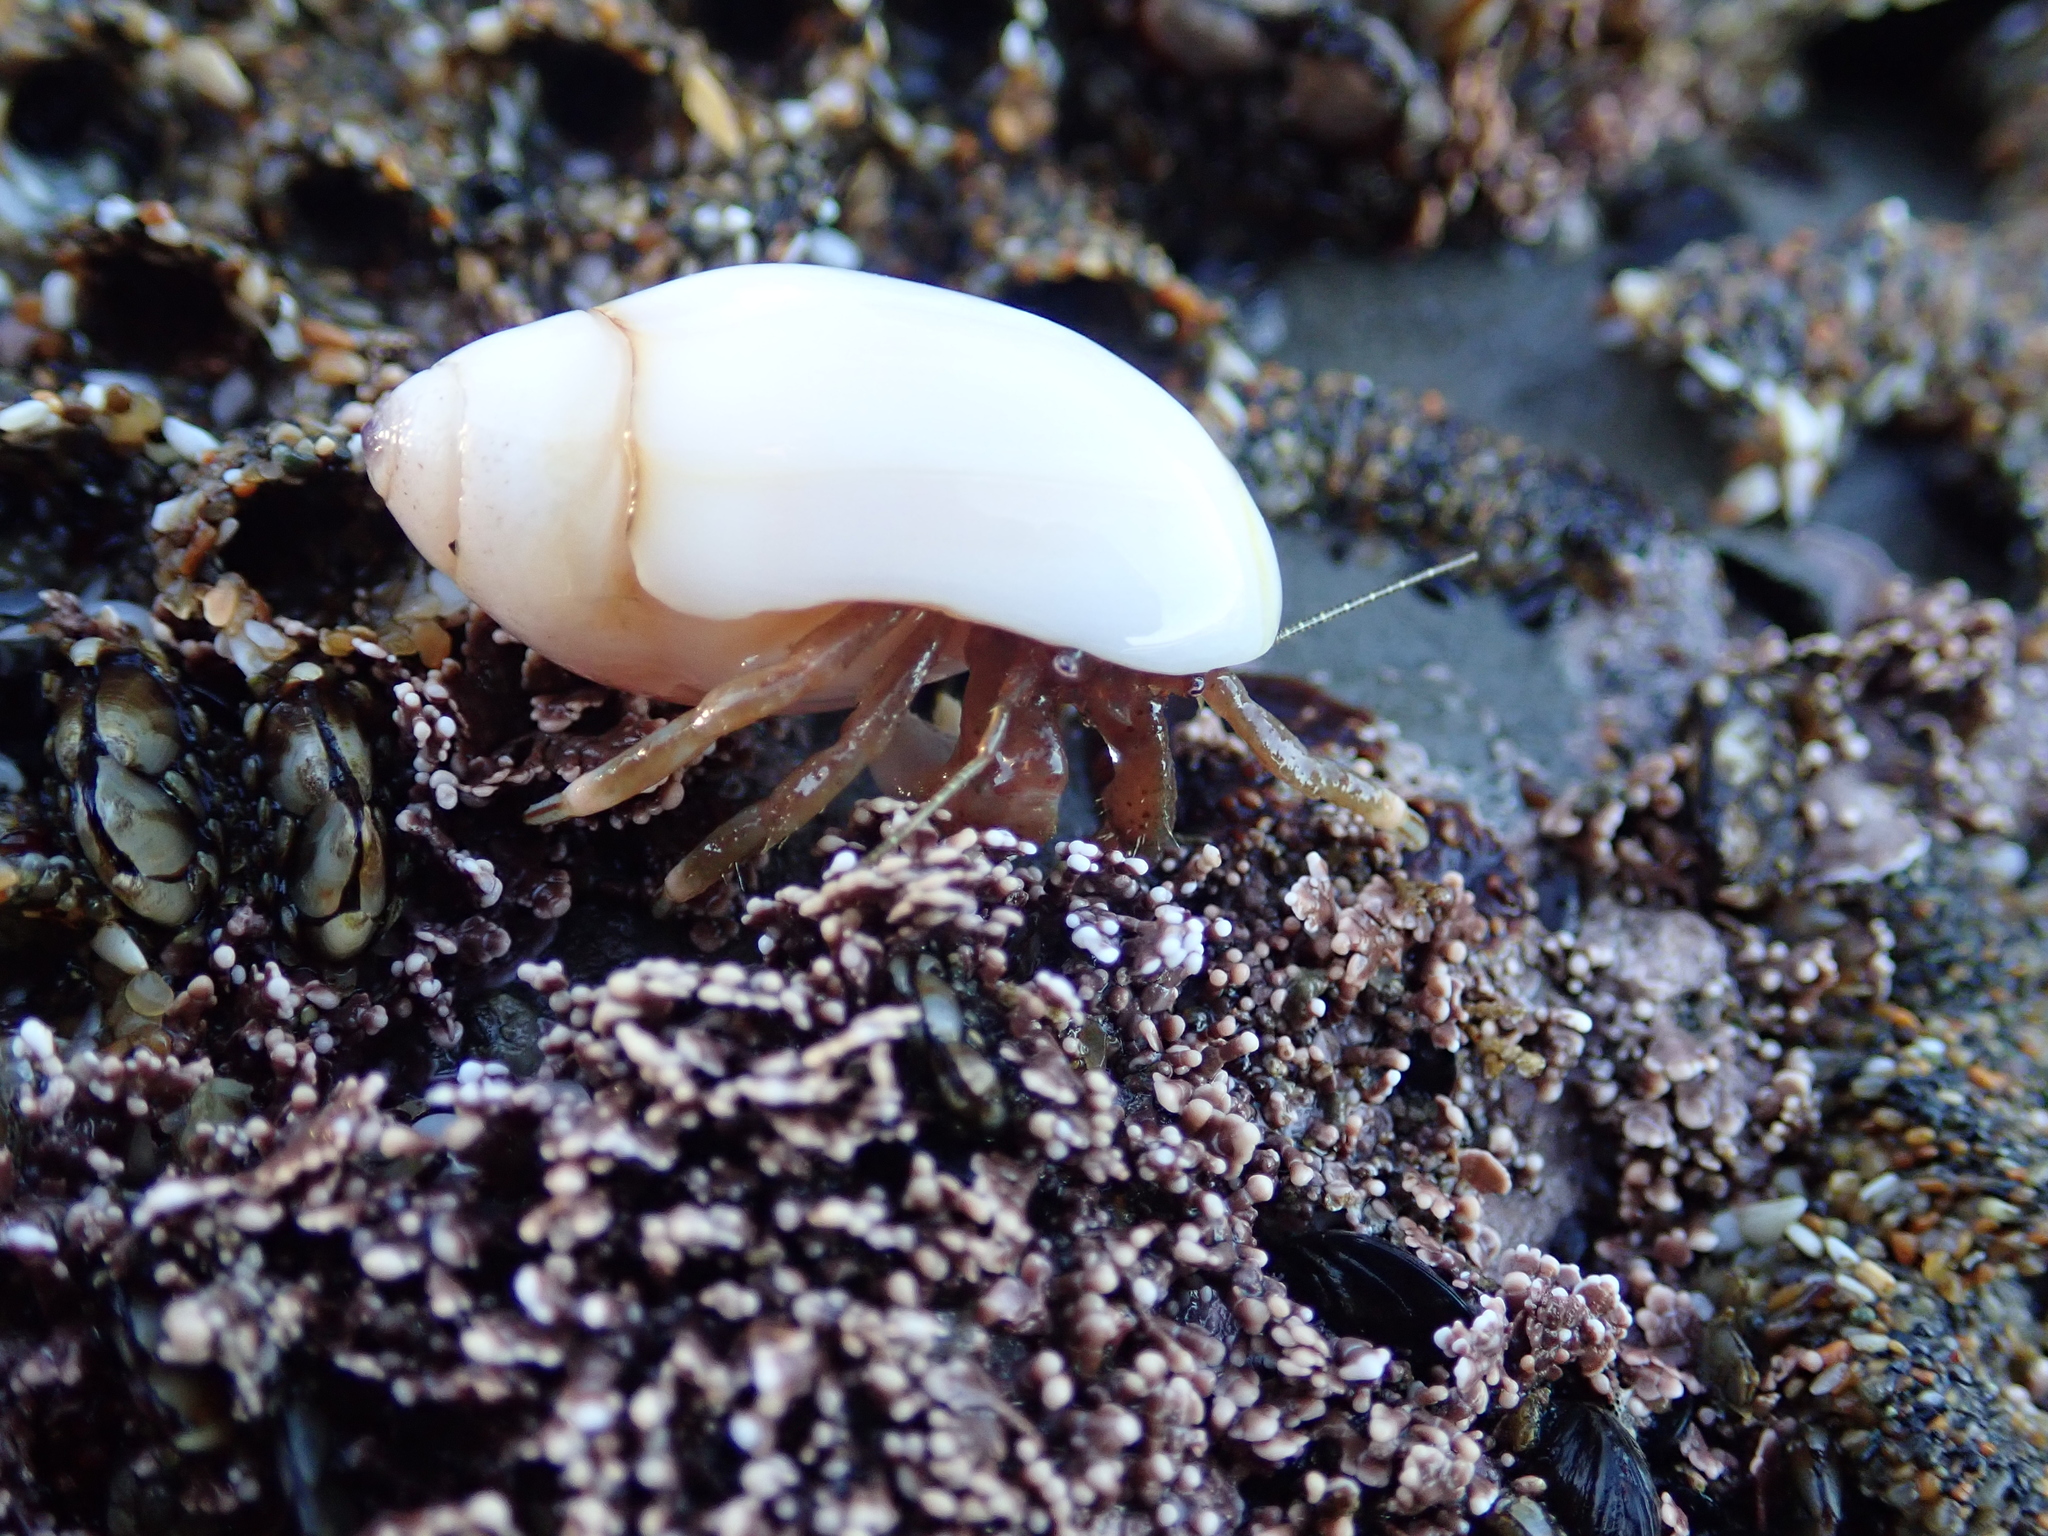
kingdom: Animalia
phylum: Arthropoda
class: Malacostraca
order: Decapoda
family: Paguridae
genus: Pagurus
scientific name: Pagurus venturensis
